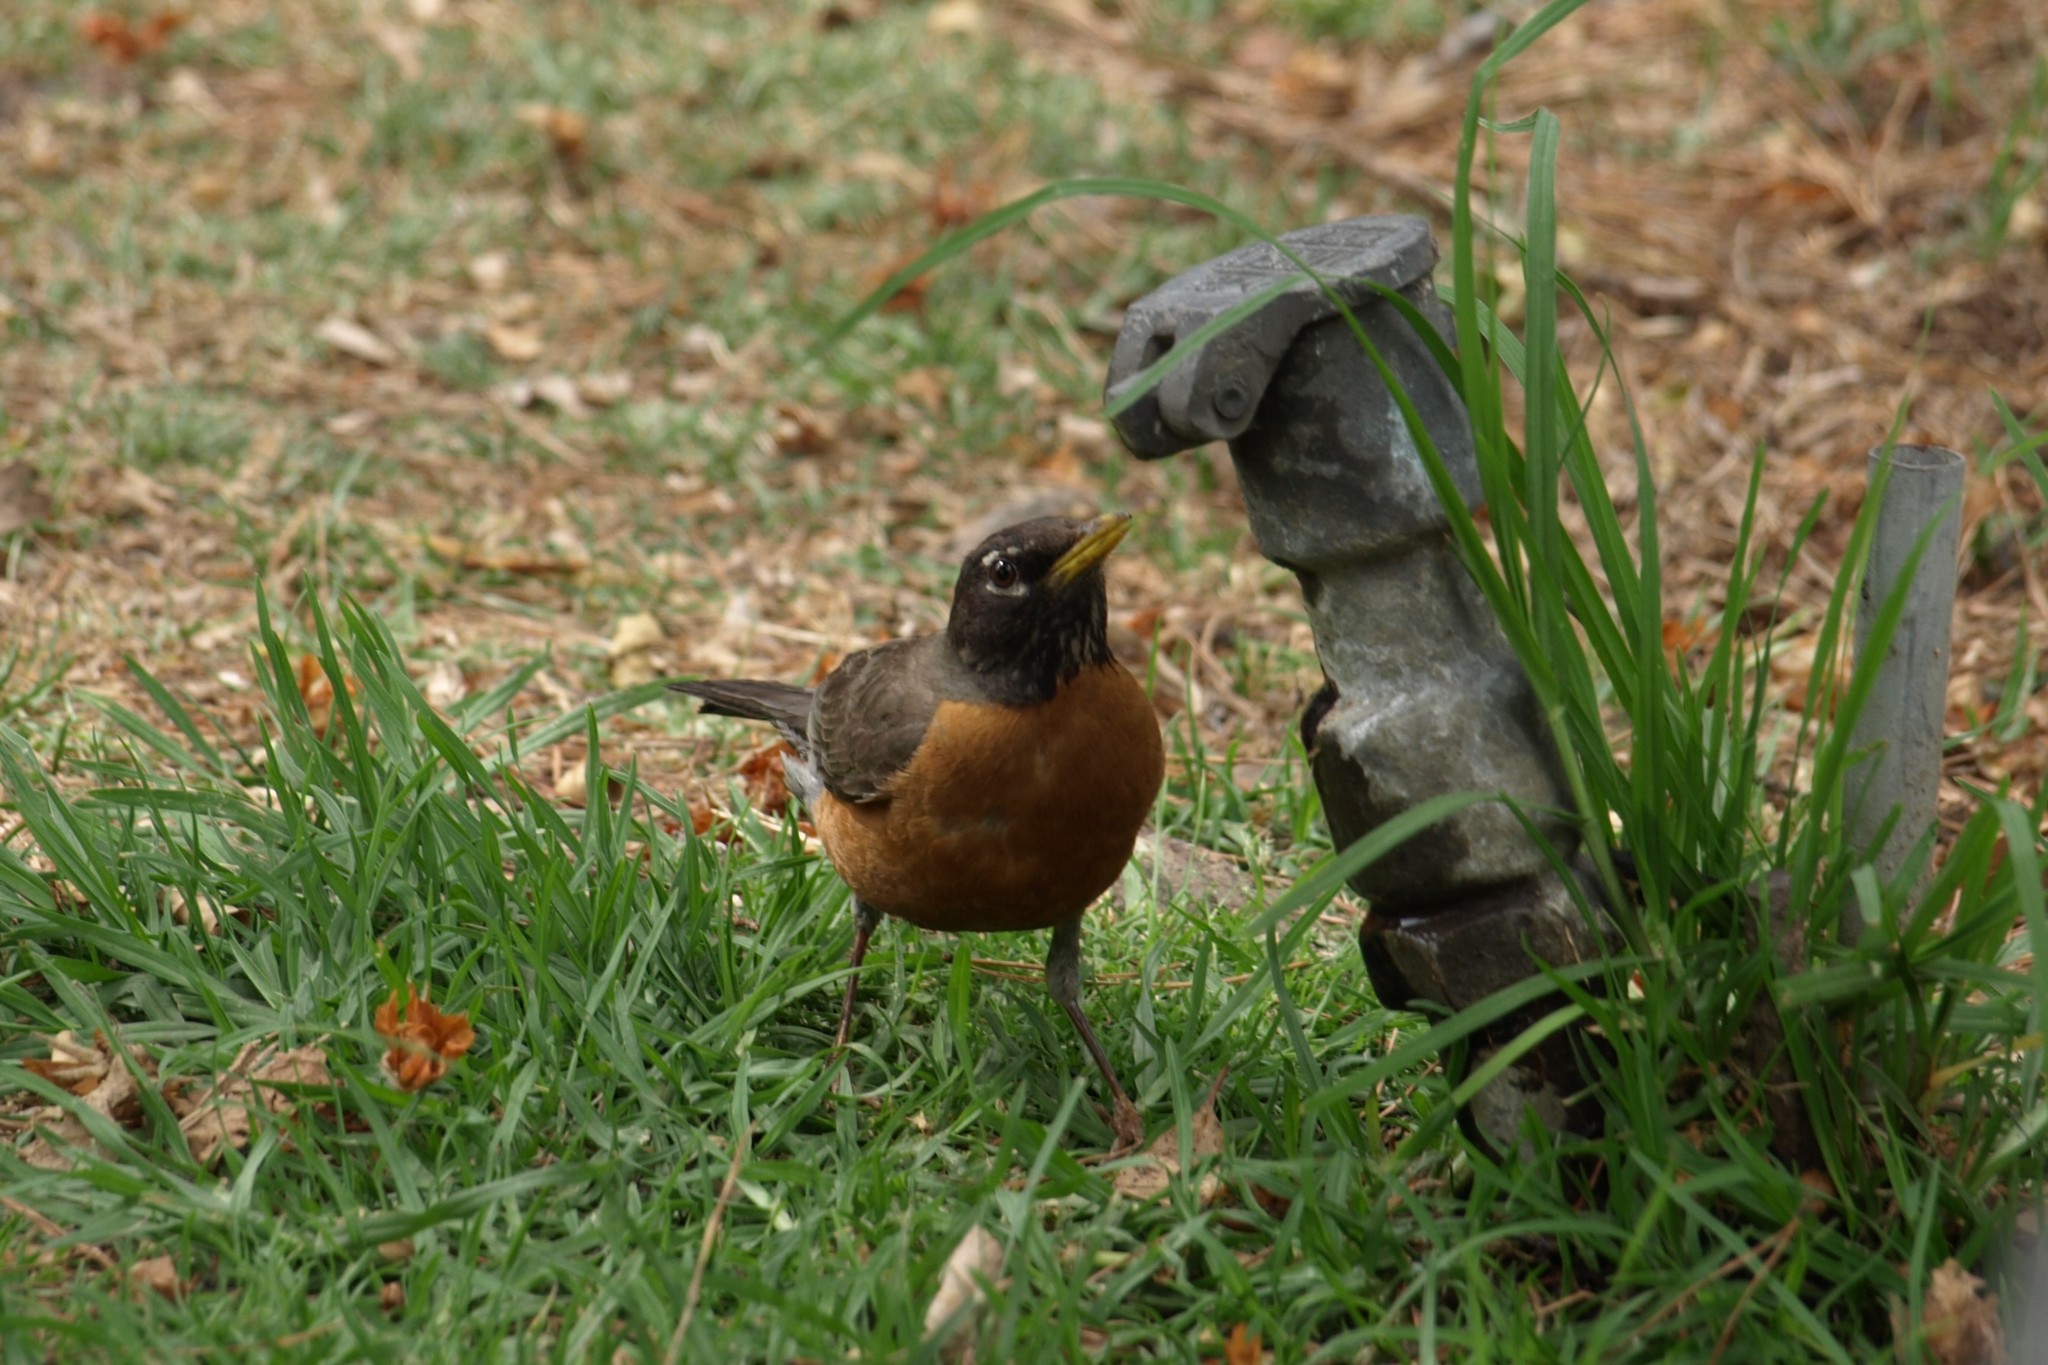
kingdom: Animalia
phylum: Chordata
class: Aves
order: Passeriformes
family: Turdidae
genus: Turdus
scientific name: Turdus migratorius
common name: American robin
